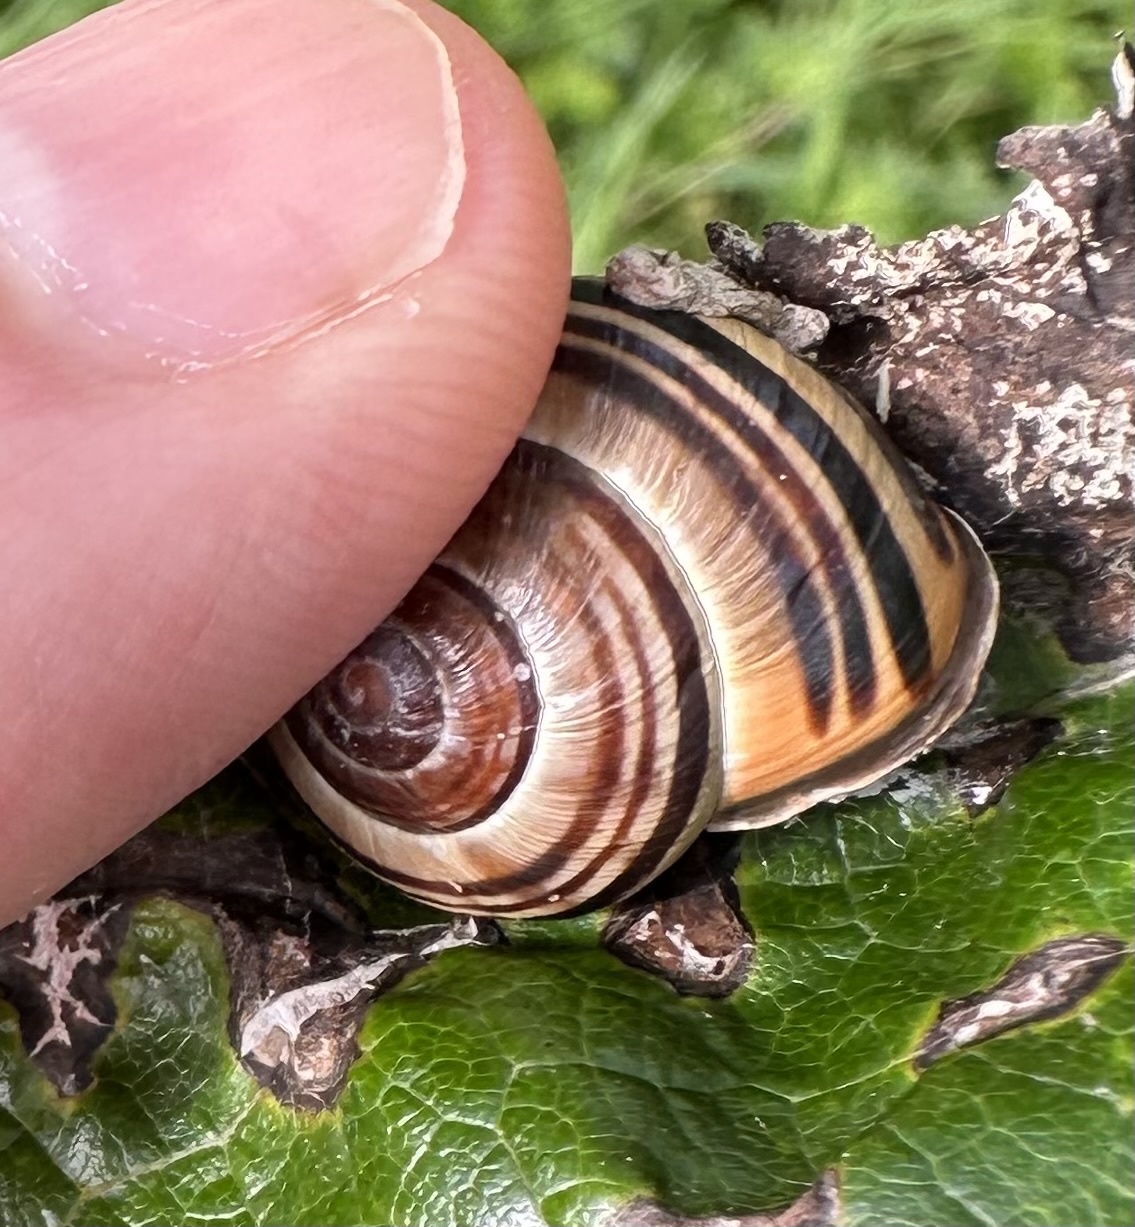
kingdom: Animalia
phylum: Mollusca
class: Gastropoda
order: Stylommatophora
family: Helicidae
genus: Cepaea
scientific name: Cepaea nemoralis
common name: Grovesnail
